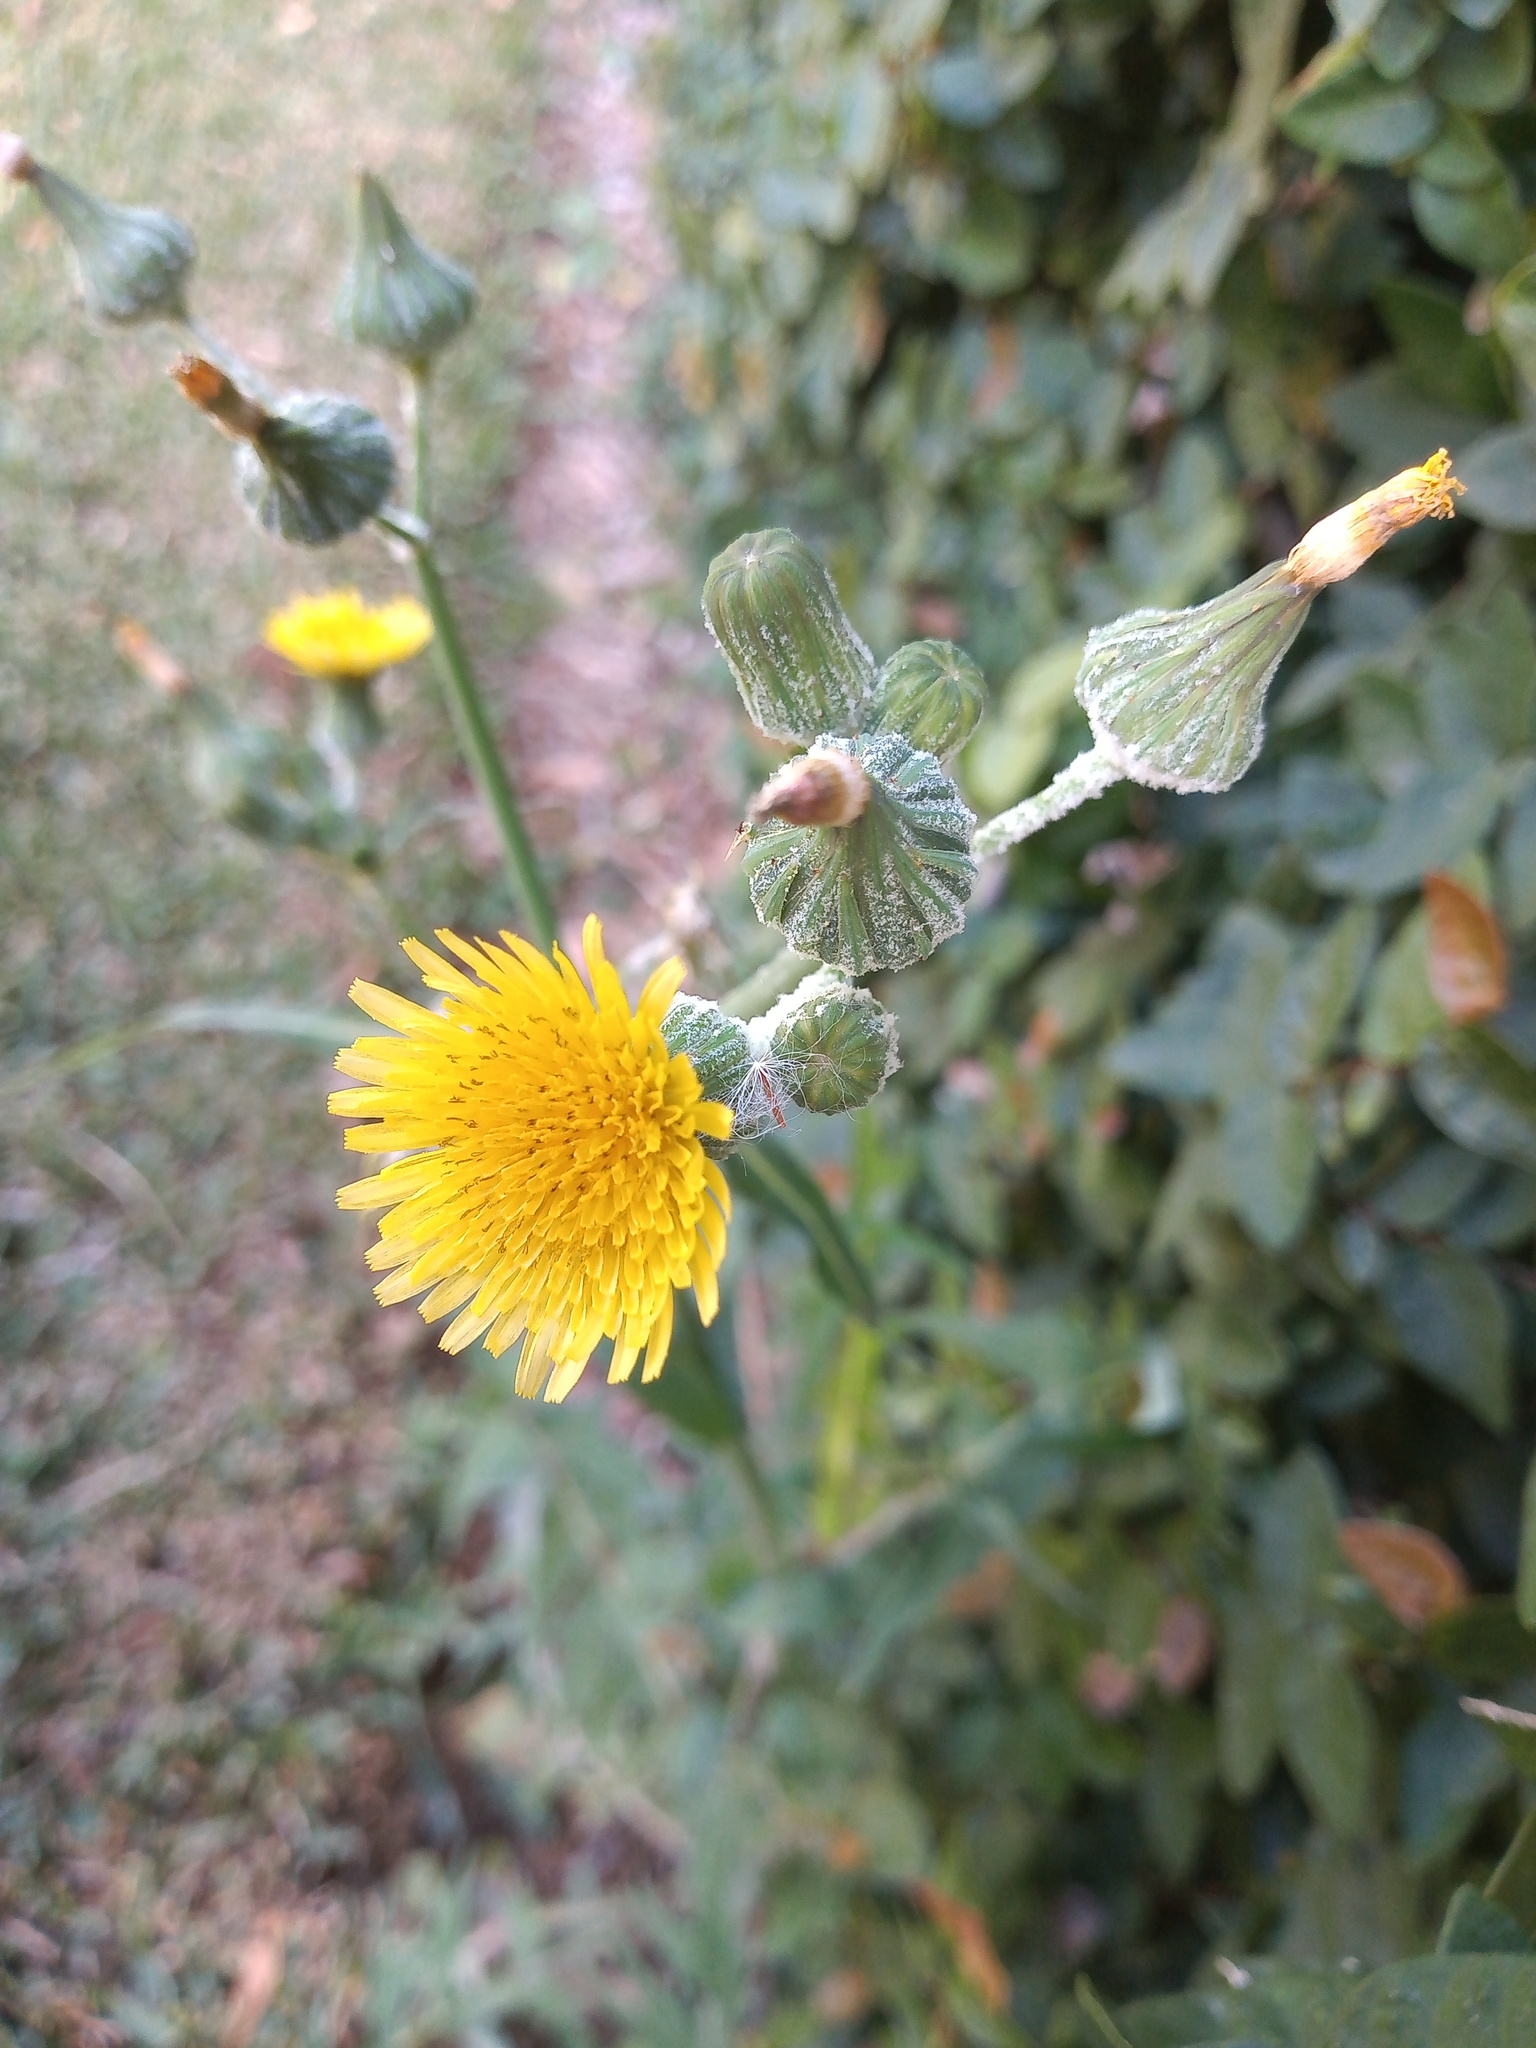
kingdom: Plantae
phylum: Tracheophyta
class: Magnoliopsida
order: Asterales
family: Asteraceae
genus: Sonchus
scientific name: Sonchus oleraceus
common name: Common sowthistle
